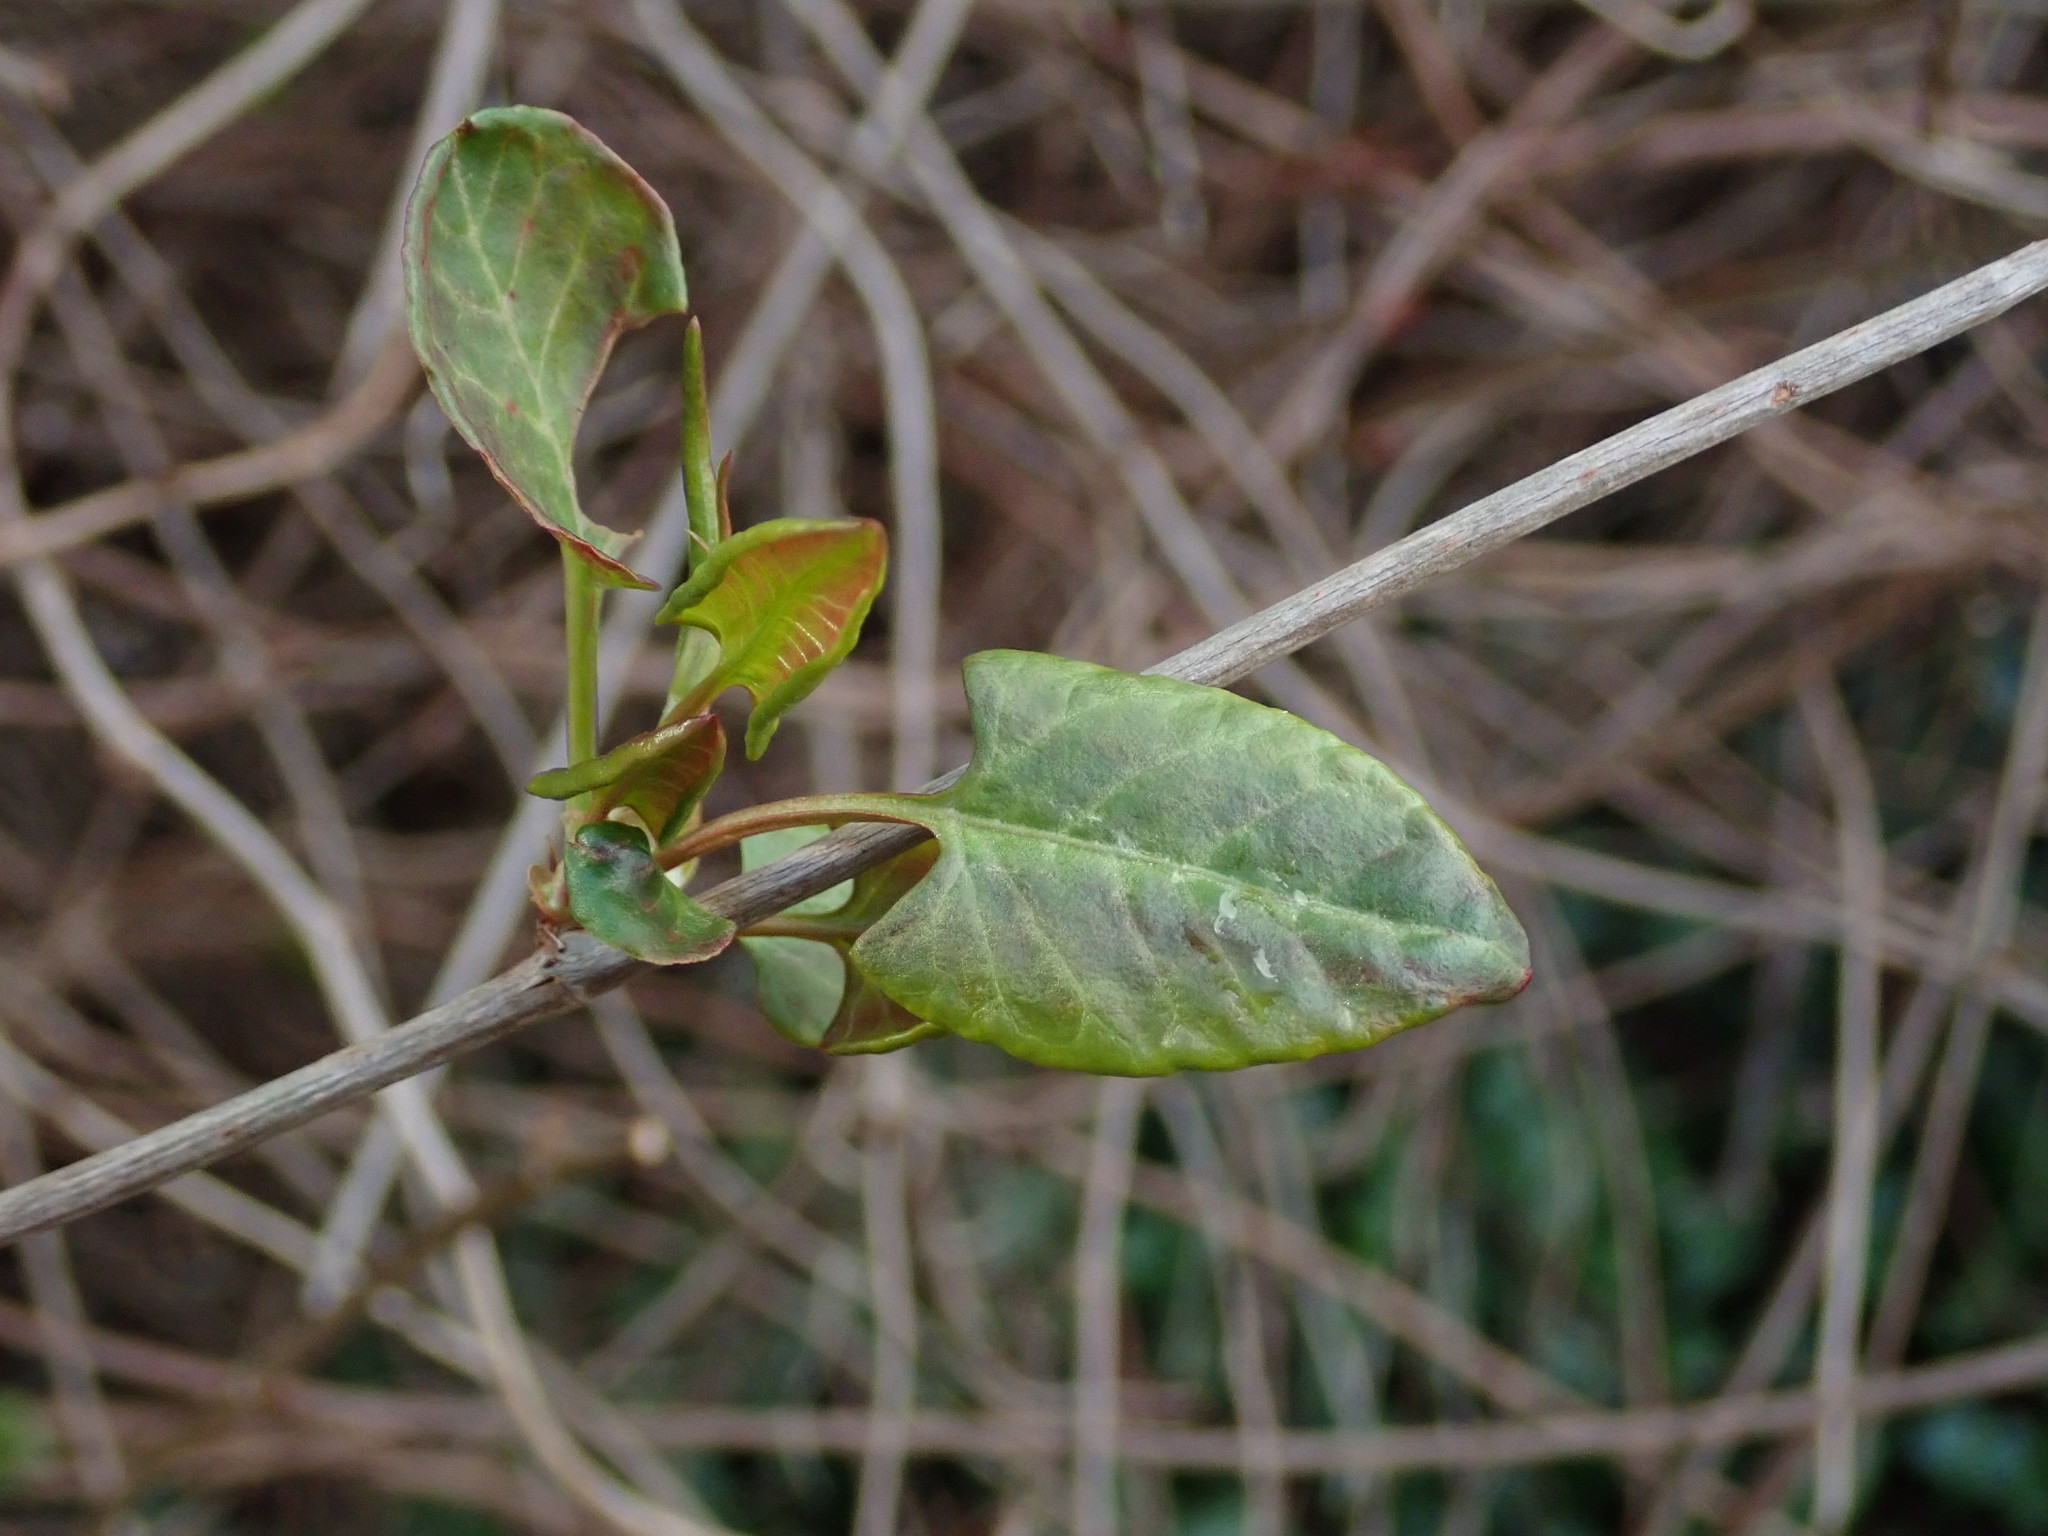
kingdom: Plantae
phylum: Tracheophyta
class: Magnoliopsida
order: Caryophyllales
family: Polygonaceae
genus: Fallopia
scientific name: Fallopia baldschuanica
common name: Russian-vine
